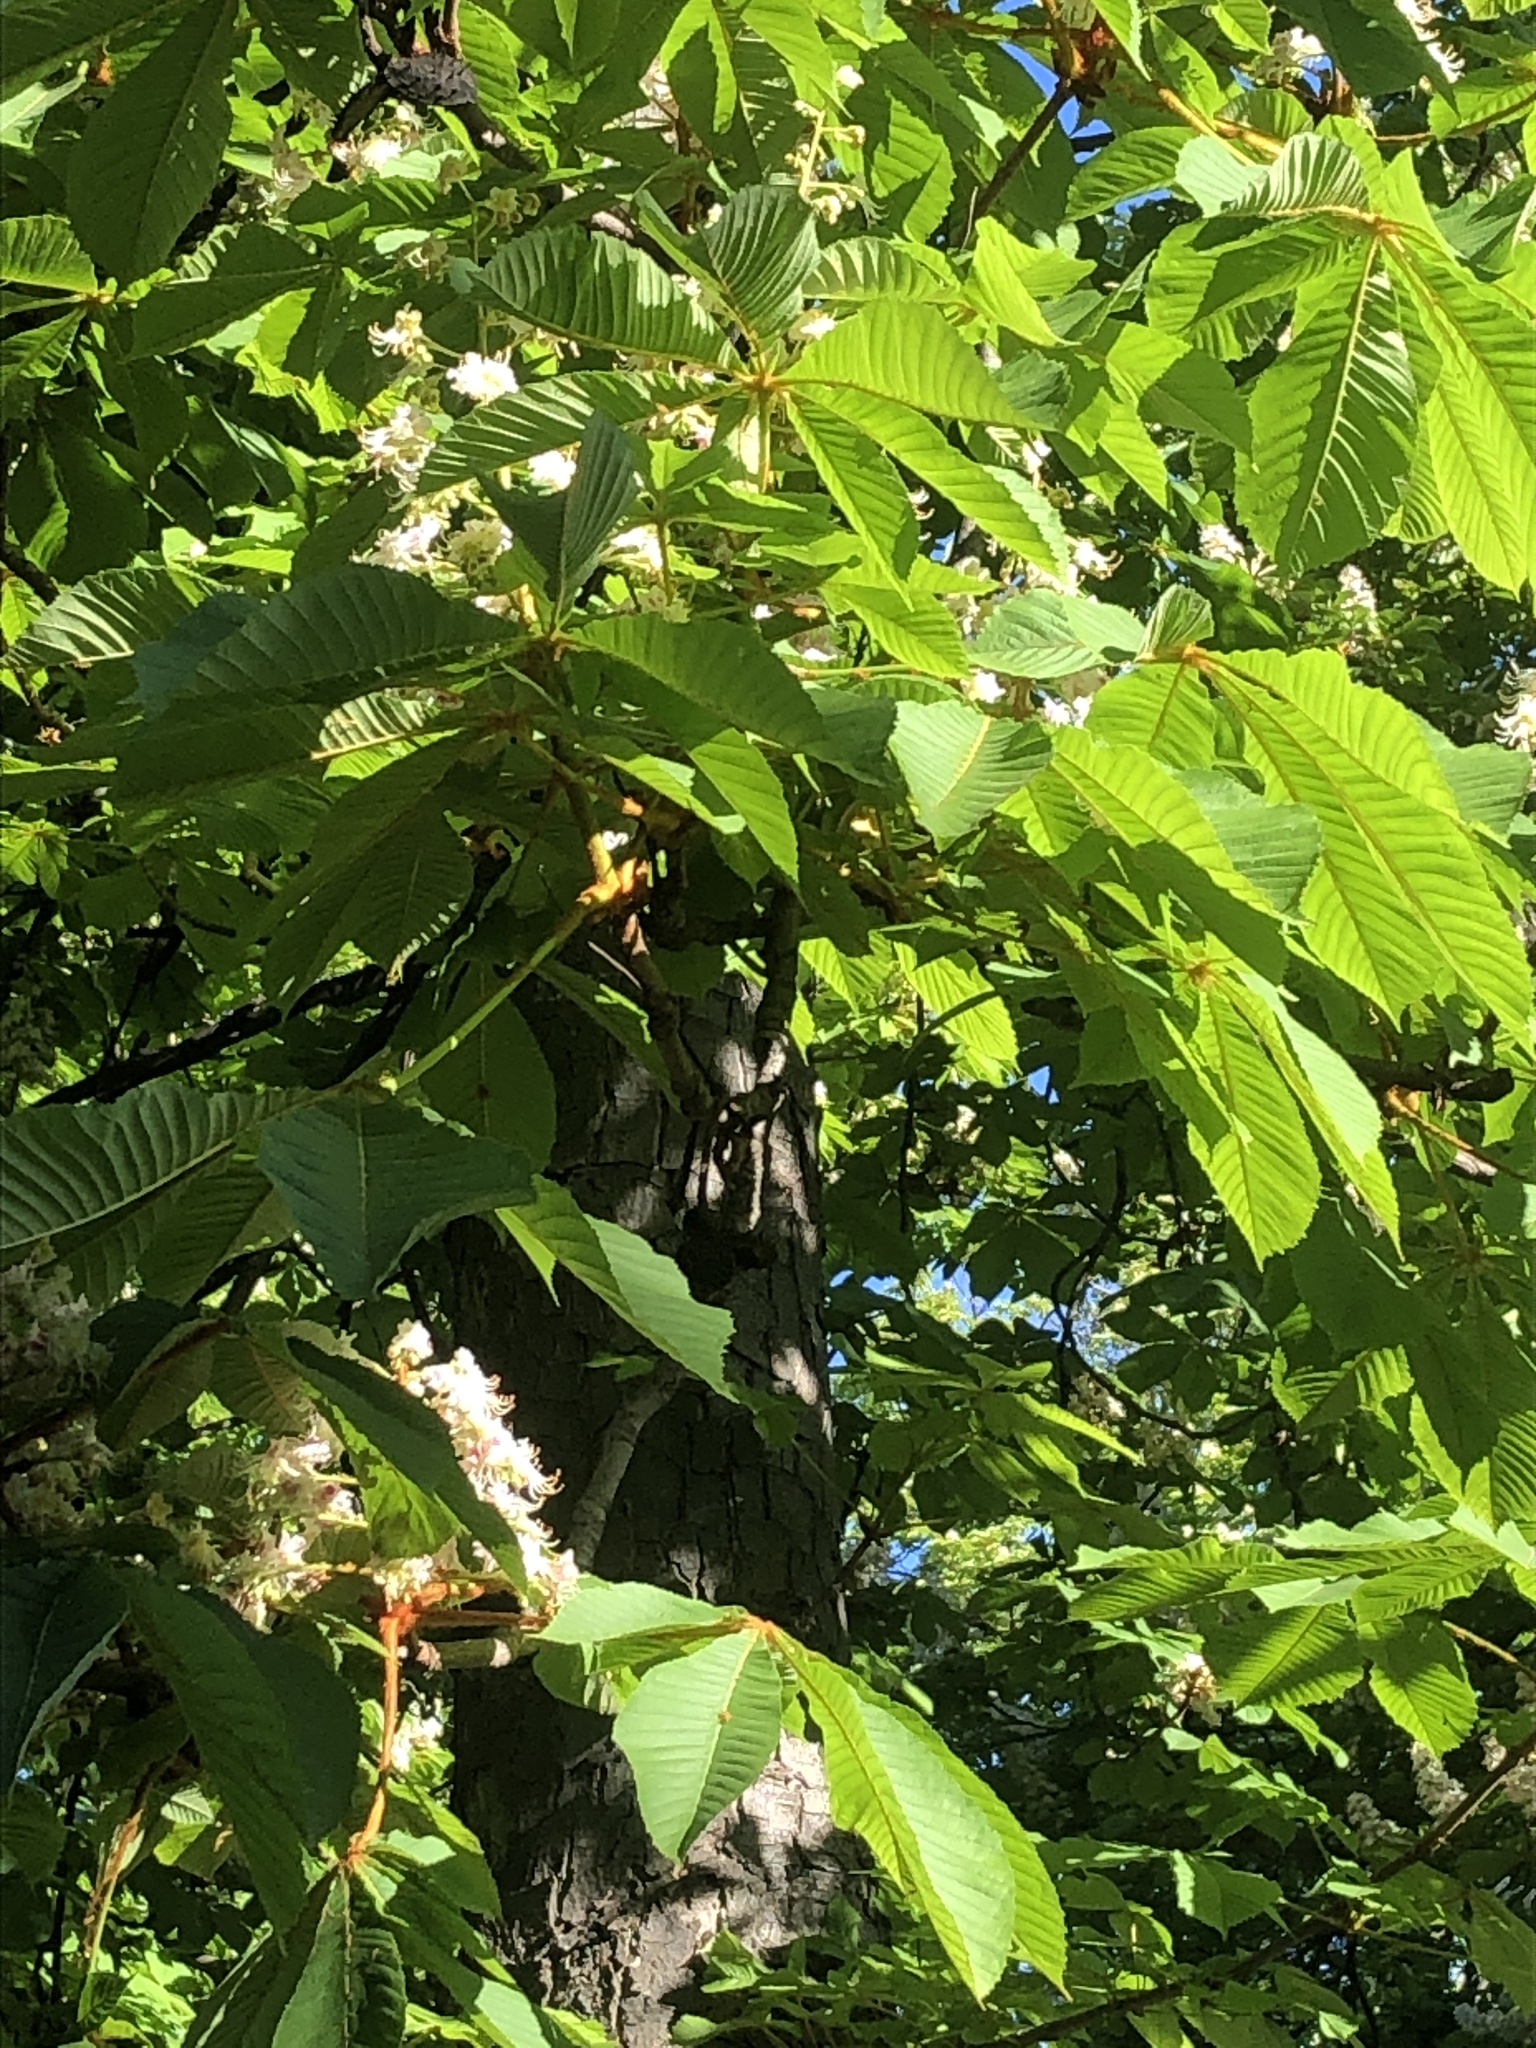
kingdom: Plantae
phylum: Tracheophyta
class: Magnoliopsida
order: Sapindales
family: Sapindaceae
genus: Aesculus
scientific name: Aesculus hippocastanum
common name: Horse-chestnut
